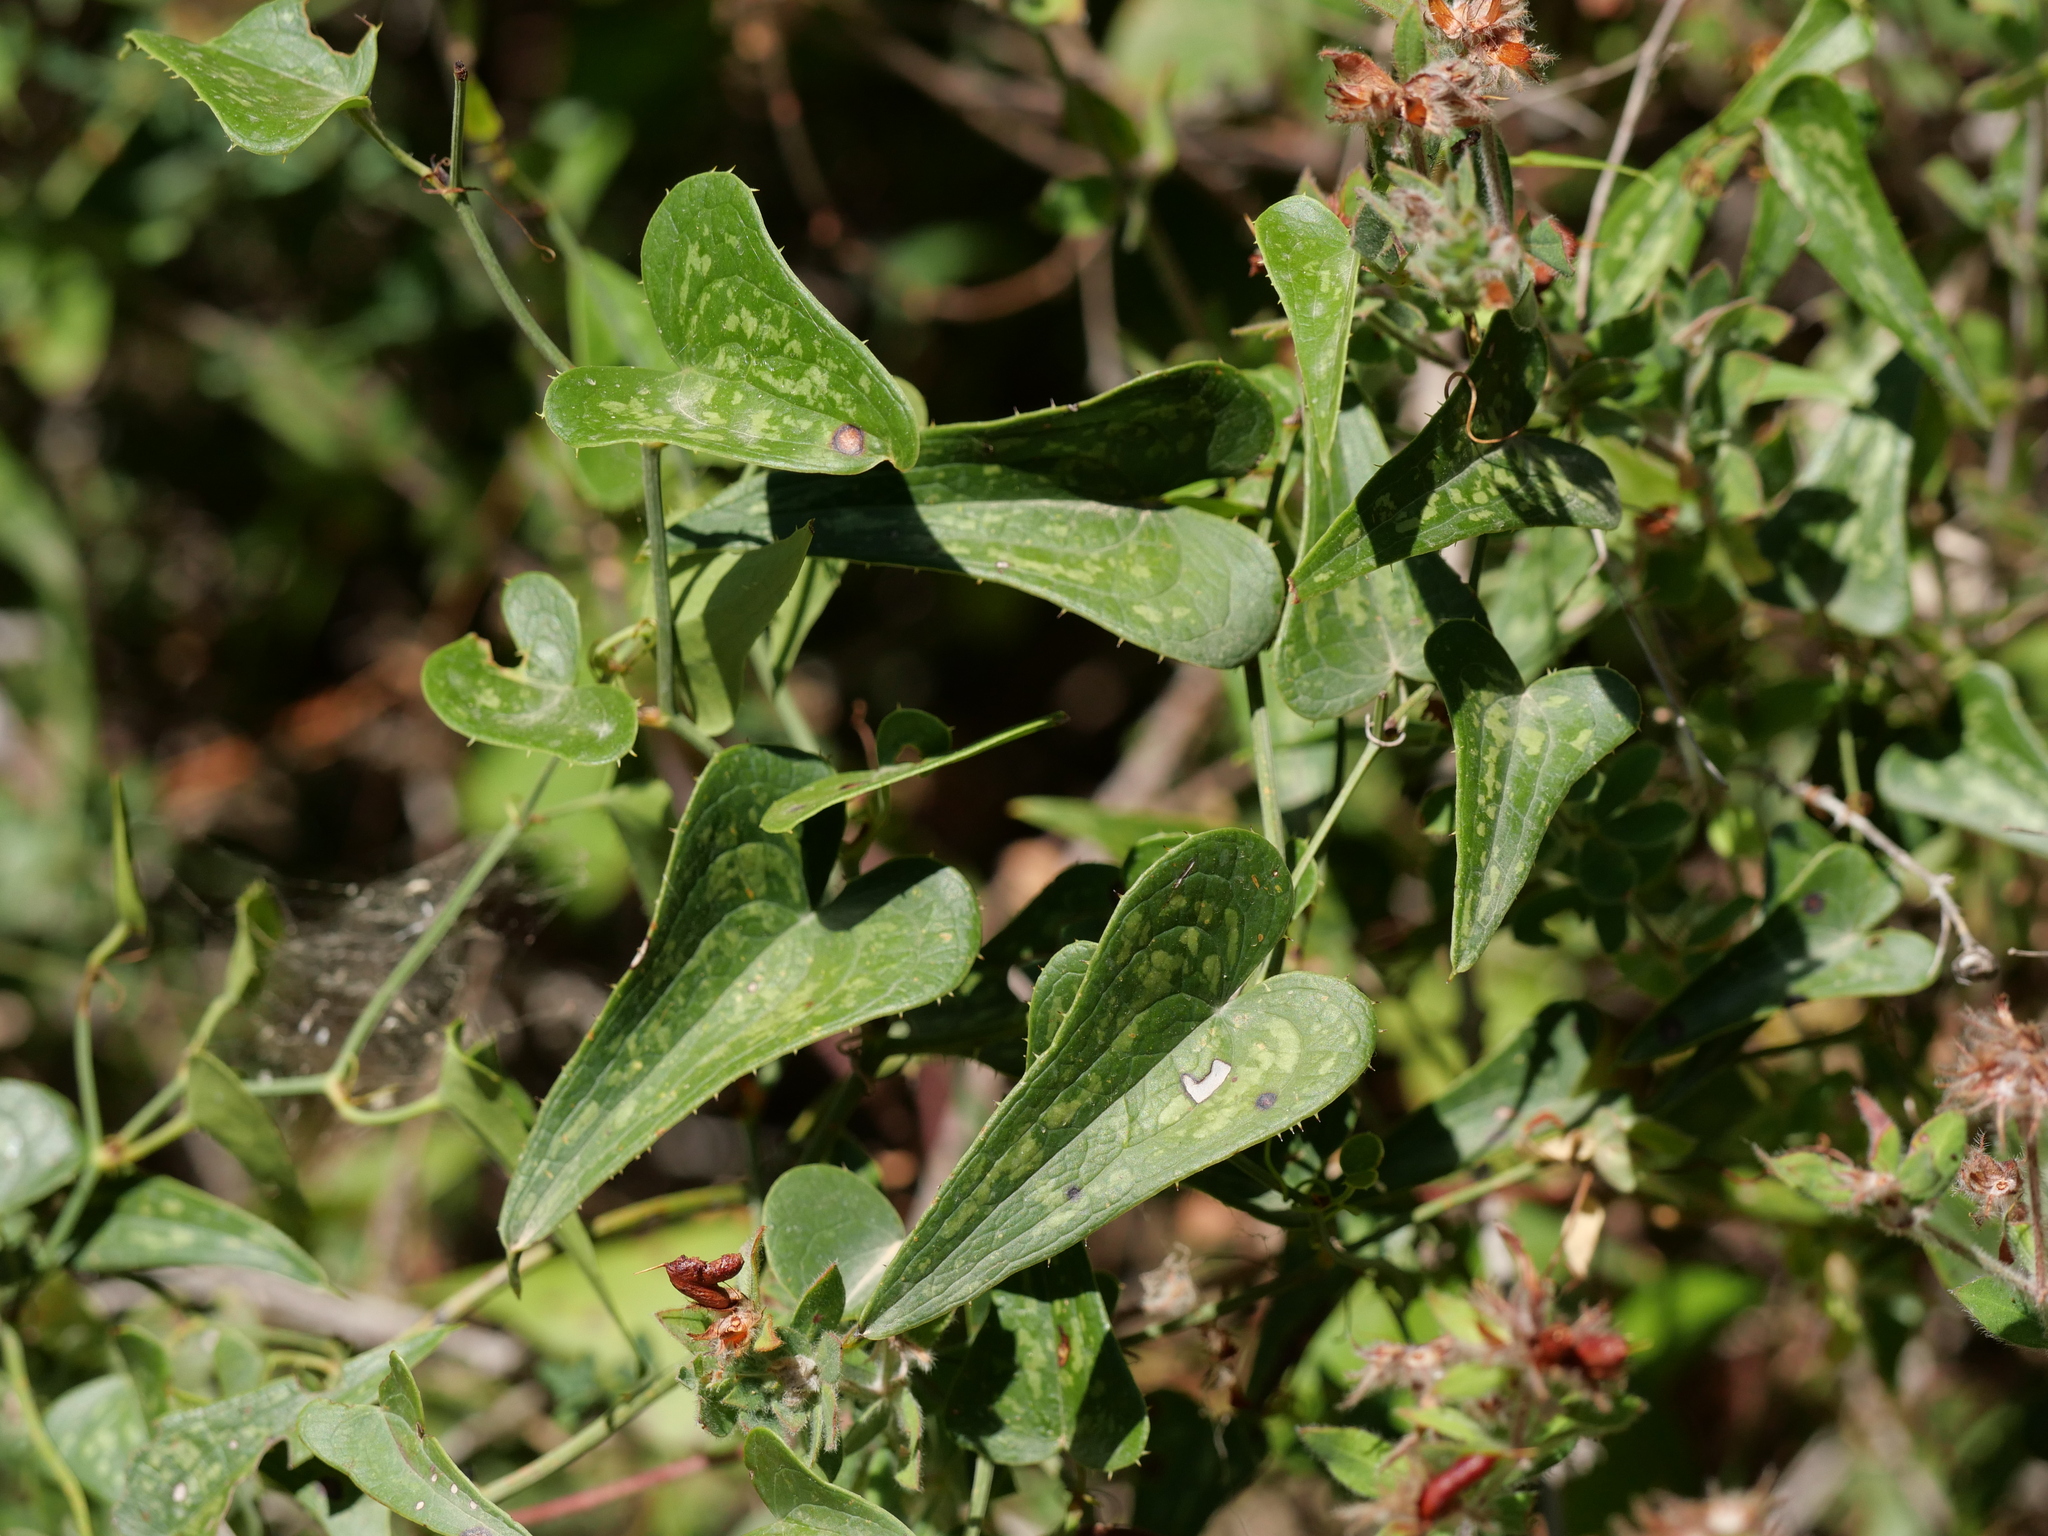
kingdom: Plantae
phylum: Tracheophyta
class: Liliopsida
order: Liliales
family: Smilacaceae
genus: Smilax
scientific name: Smilax aspera
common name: Common smilax
